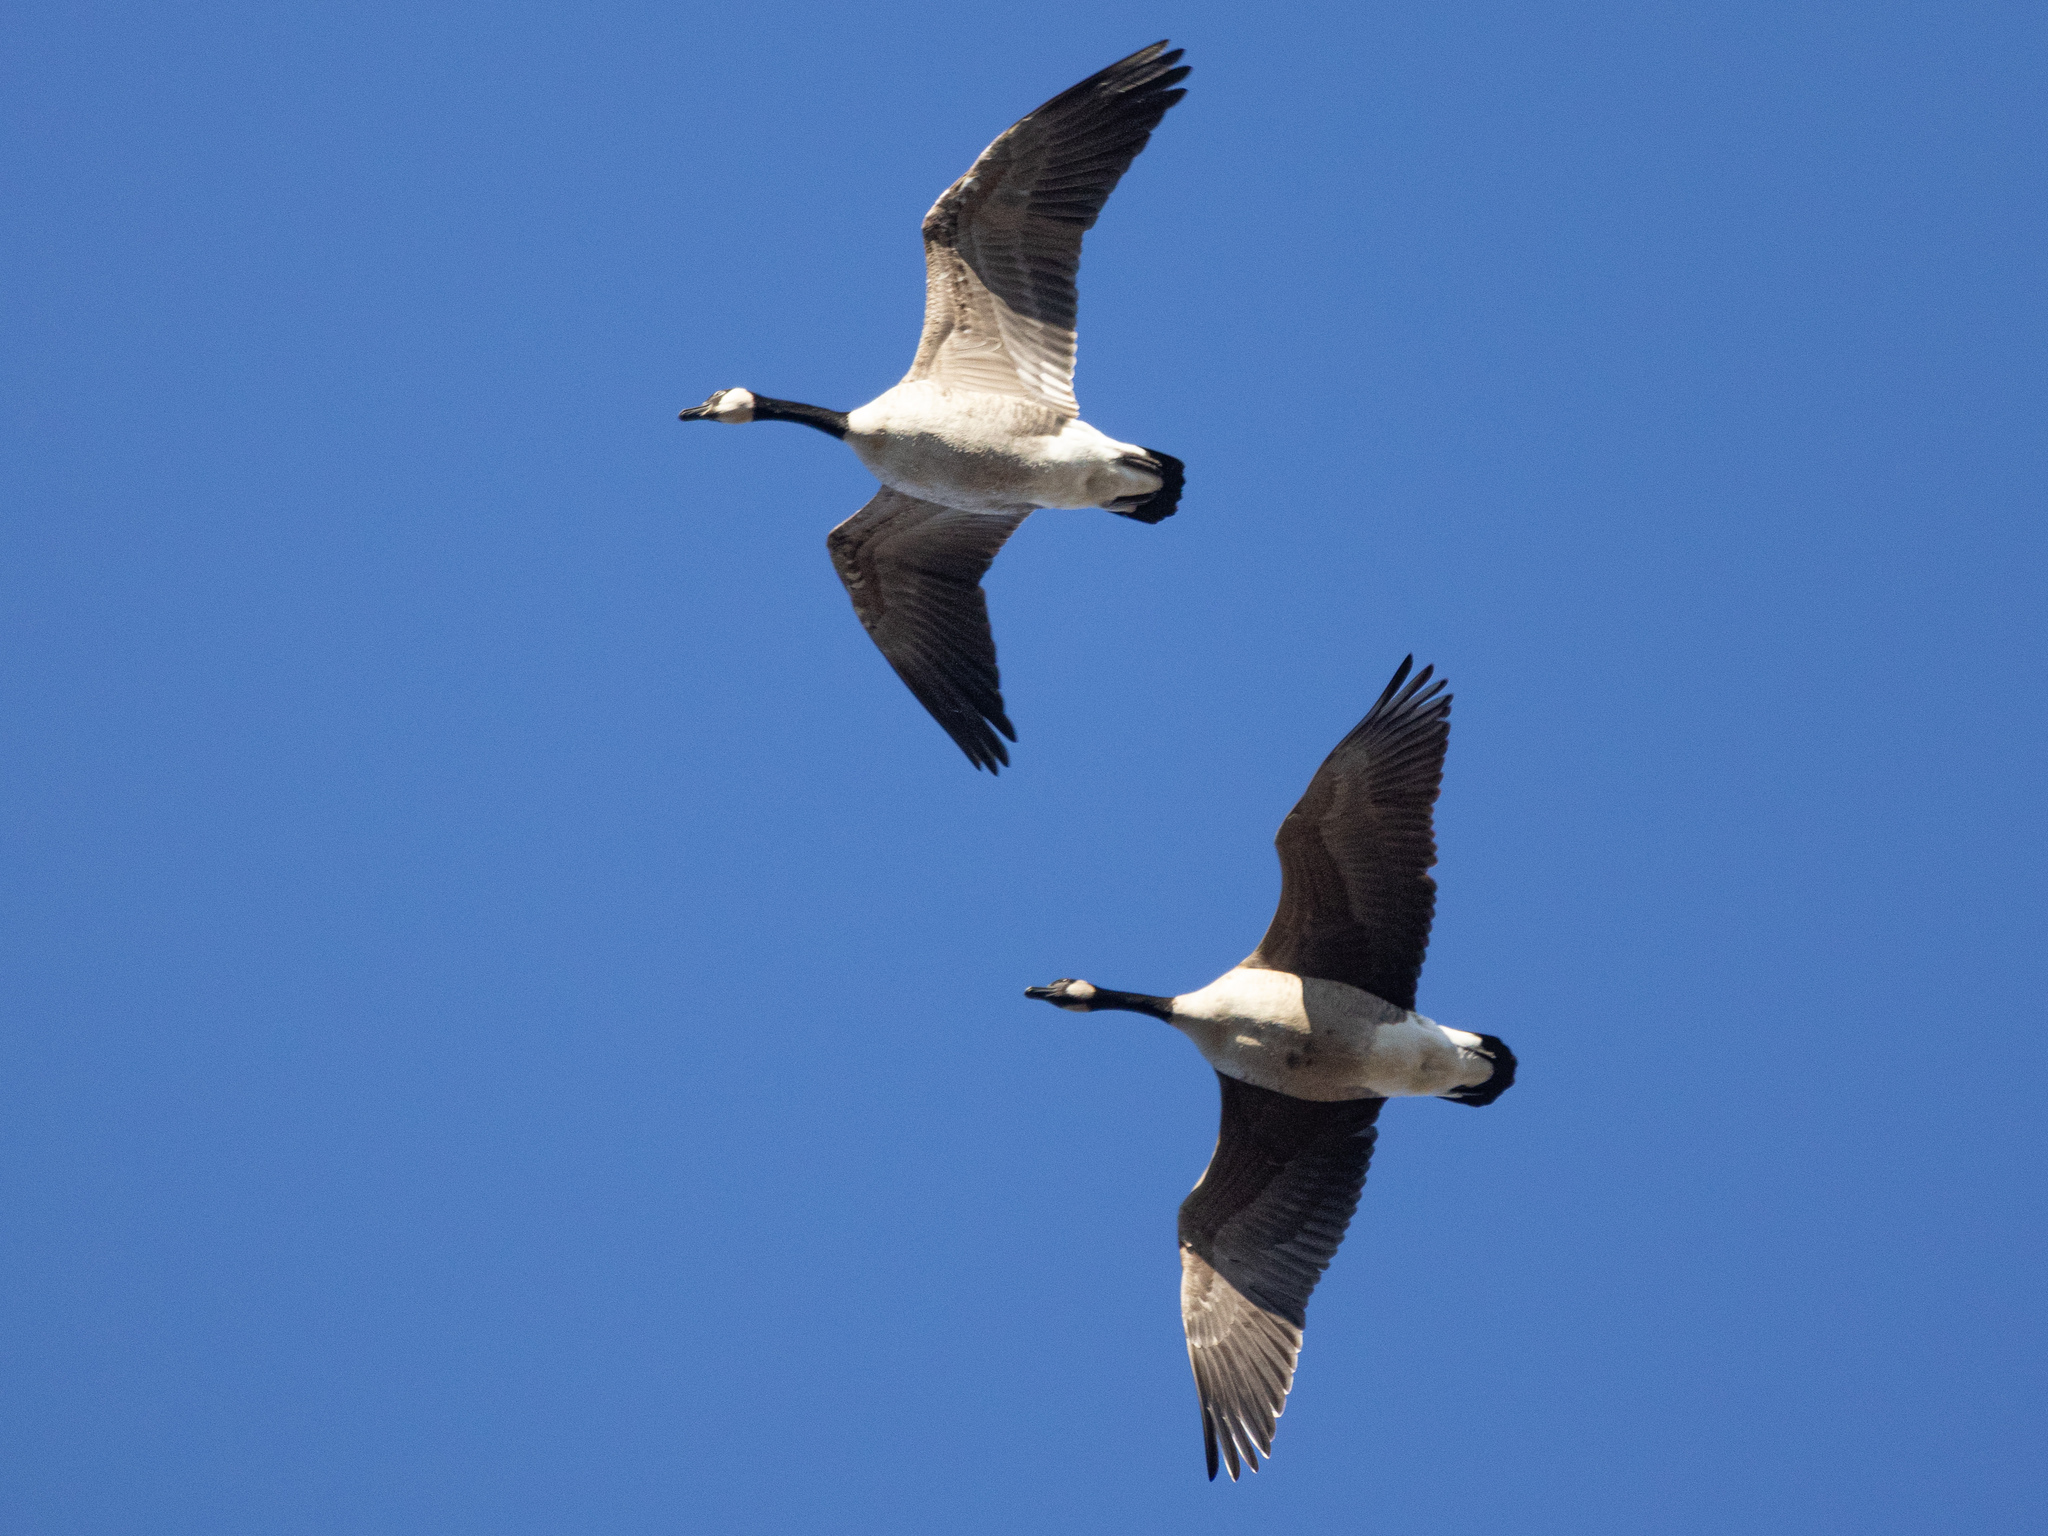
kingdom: Animalia
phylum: Chordata
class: Aves
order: Anseriformes
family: Anatidae
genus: Branta
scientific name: Branta canadensis
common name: Canada goose
